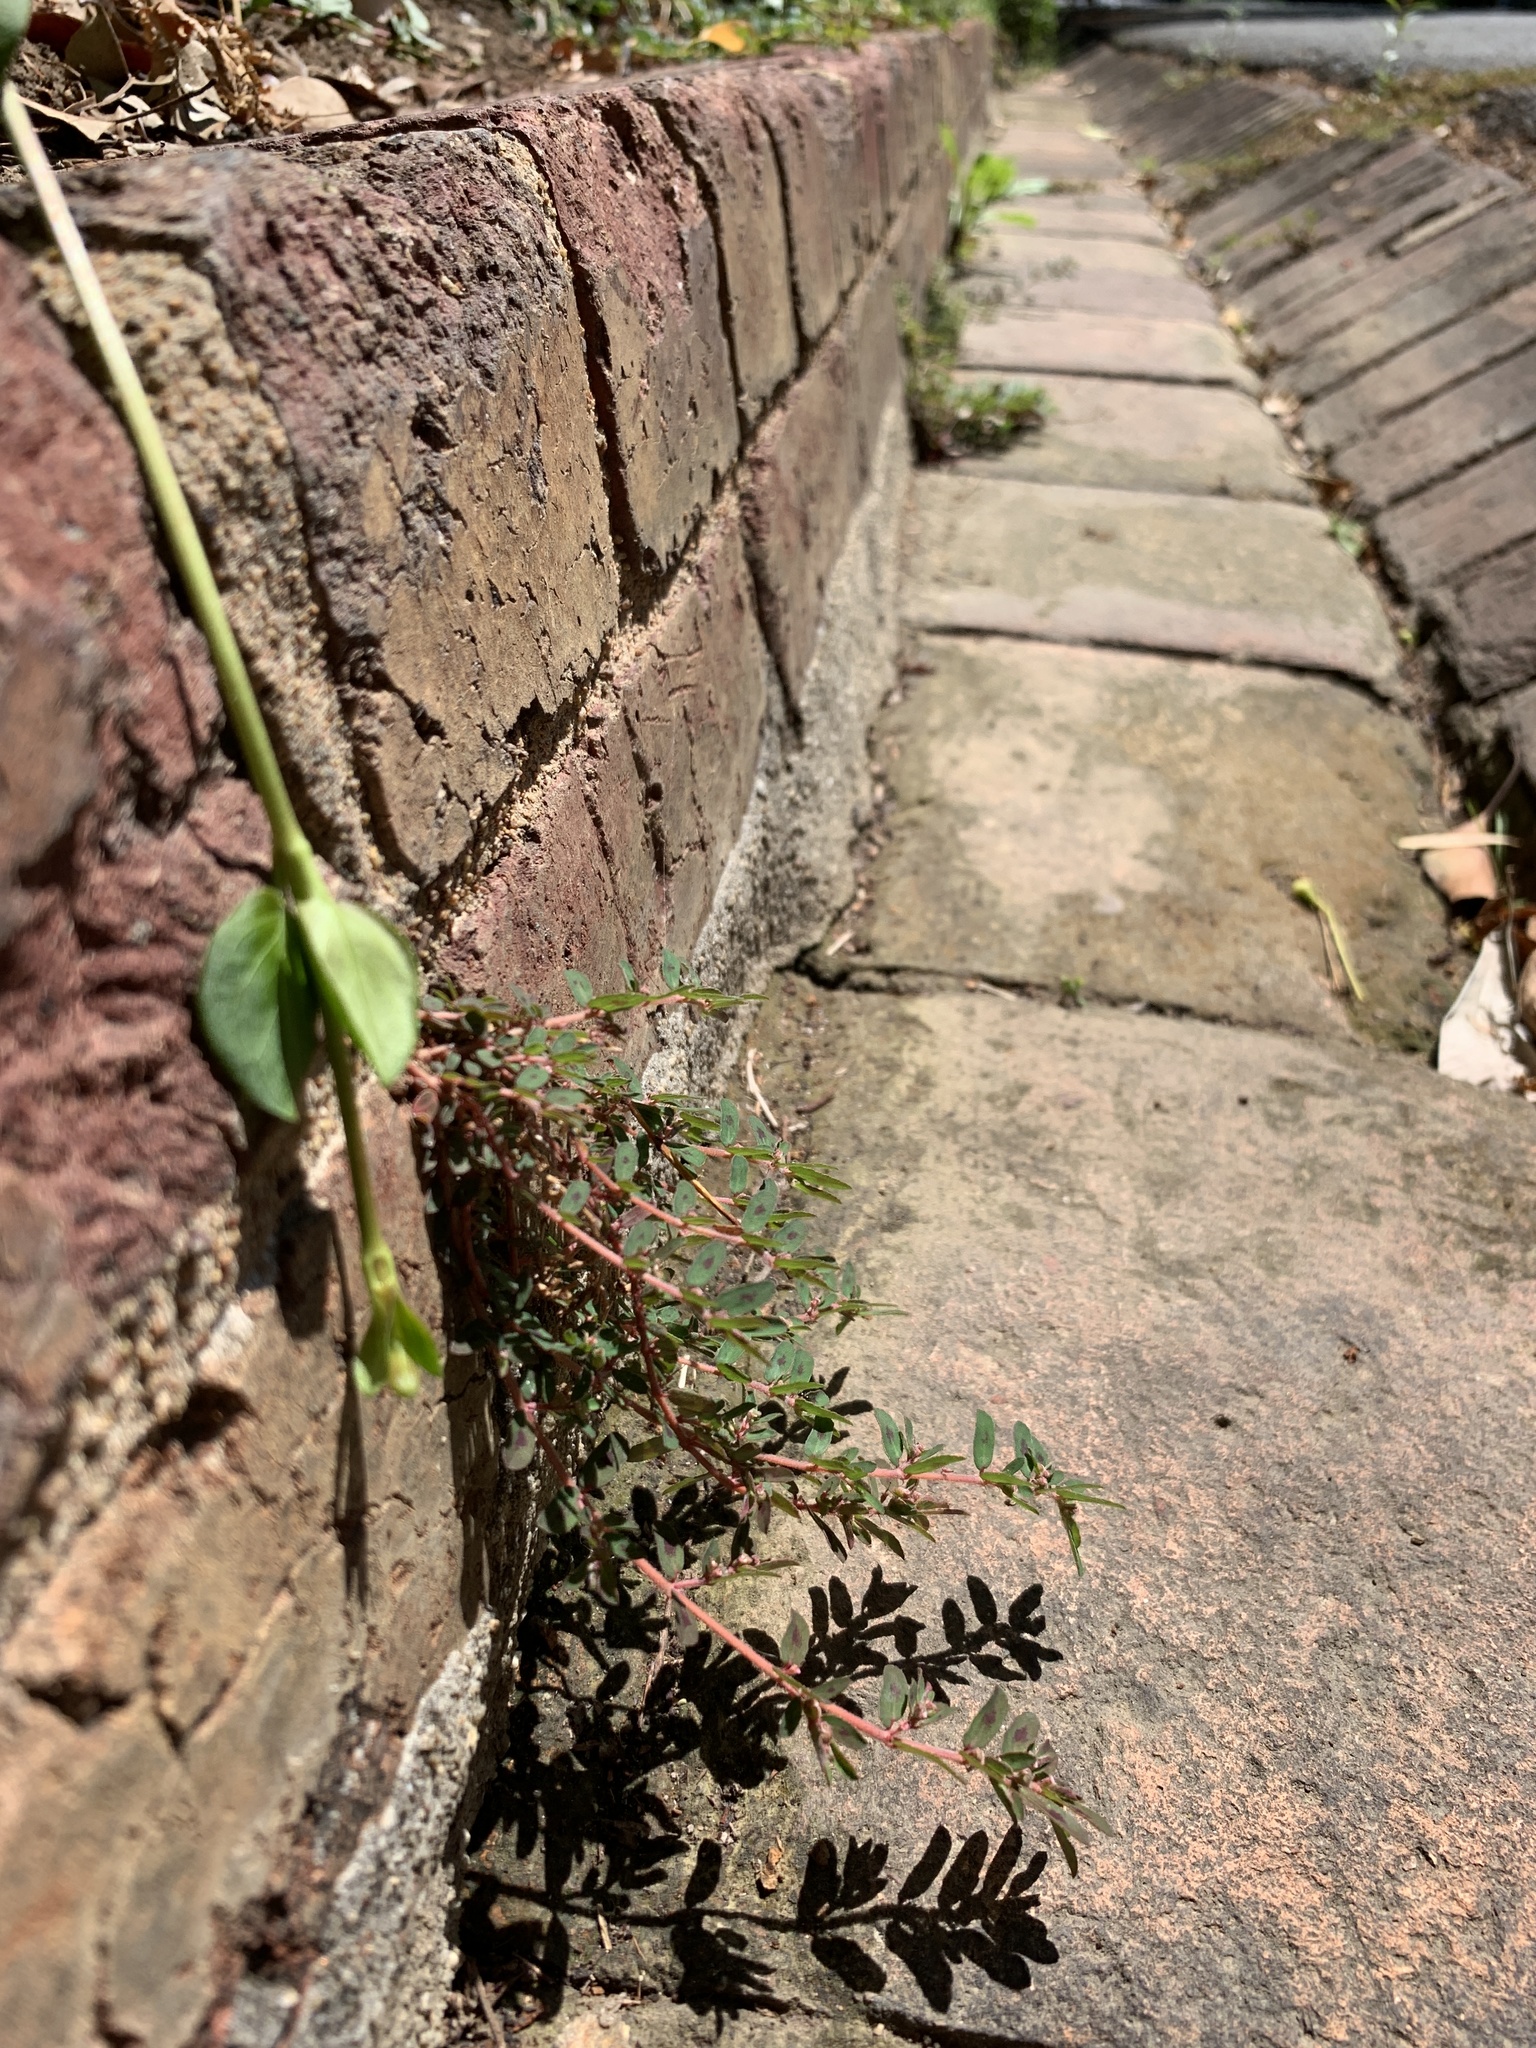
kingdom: Plantae
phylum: Tracheophyta
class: Magnoliopsida
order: Malpighiales
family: Euphorbiaceae
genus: Euphorbia
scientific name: Euphorbia maculata
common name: Spotted spurge
